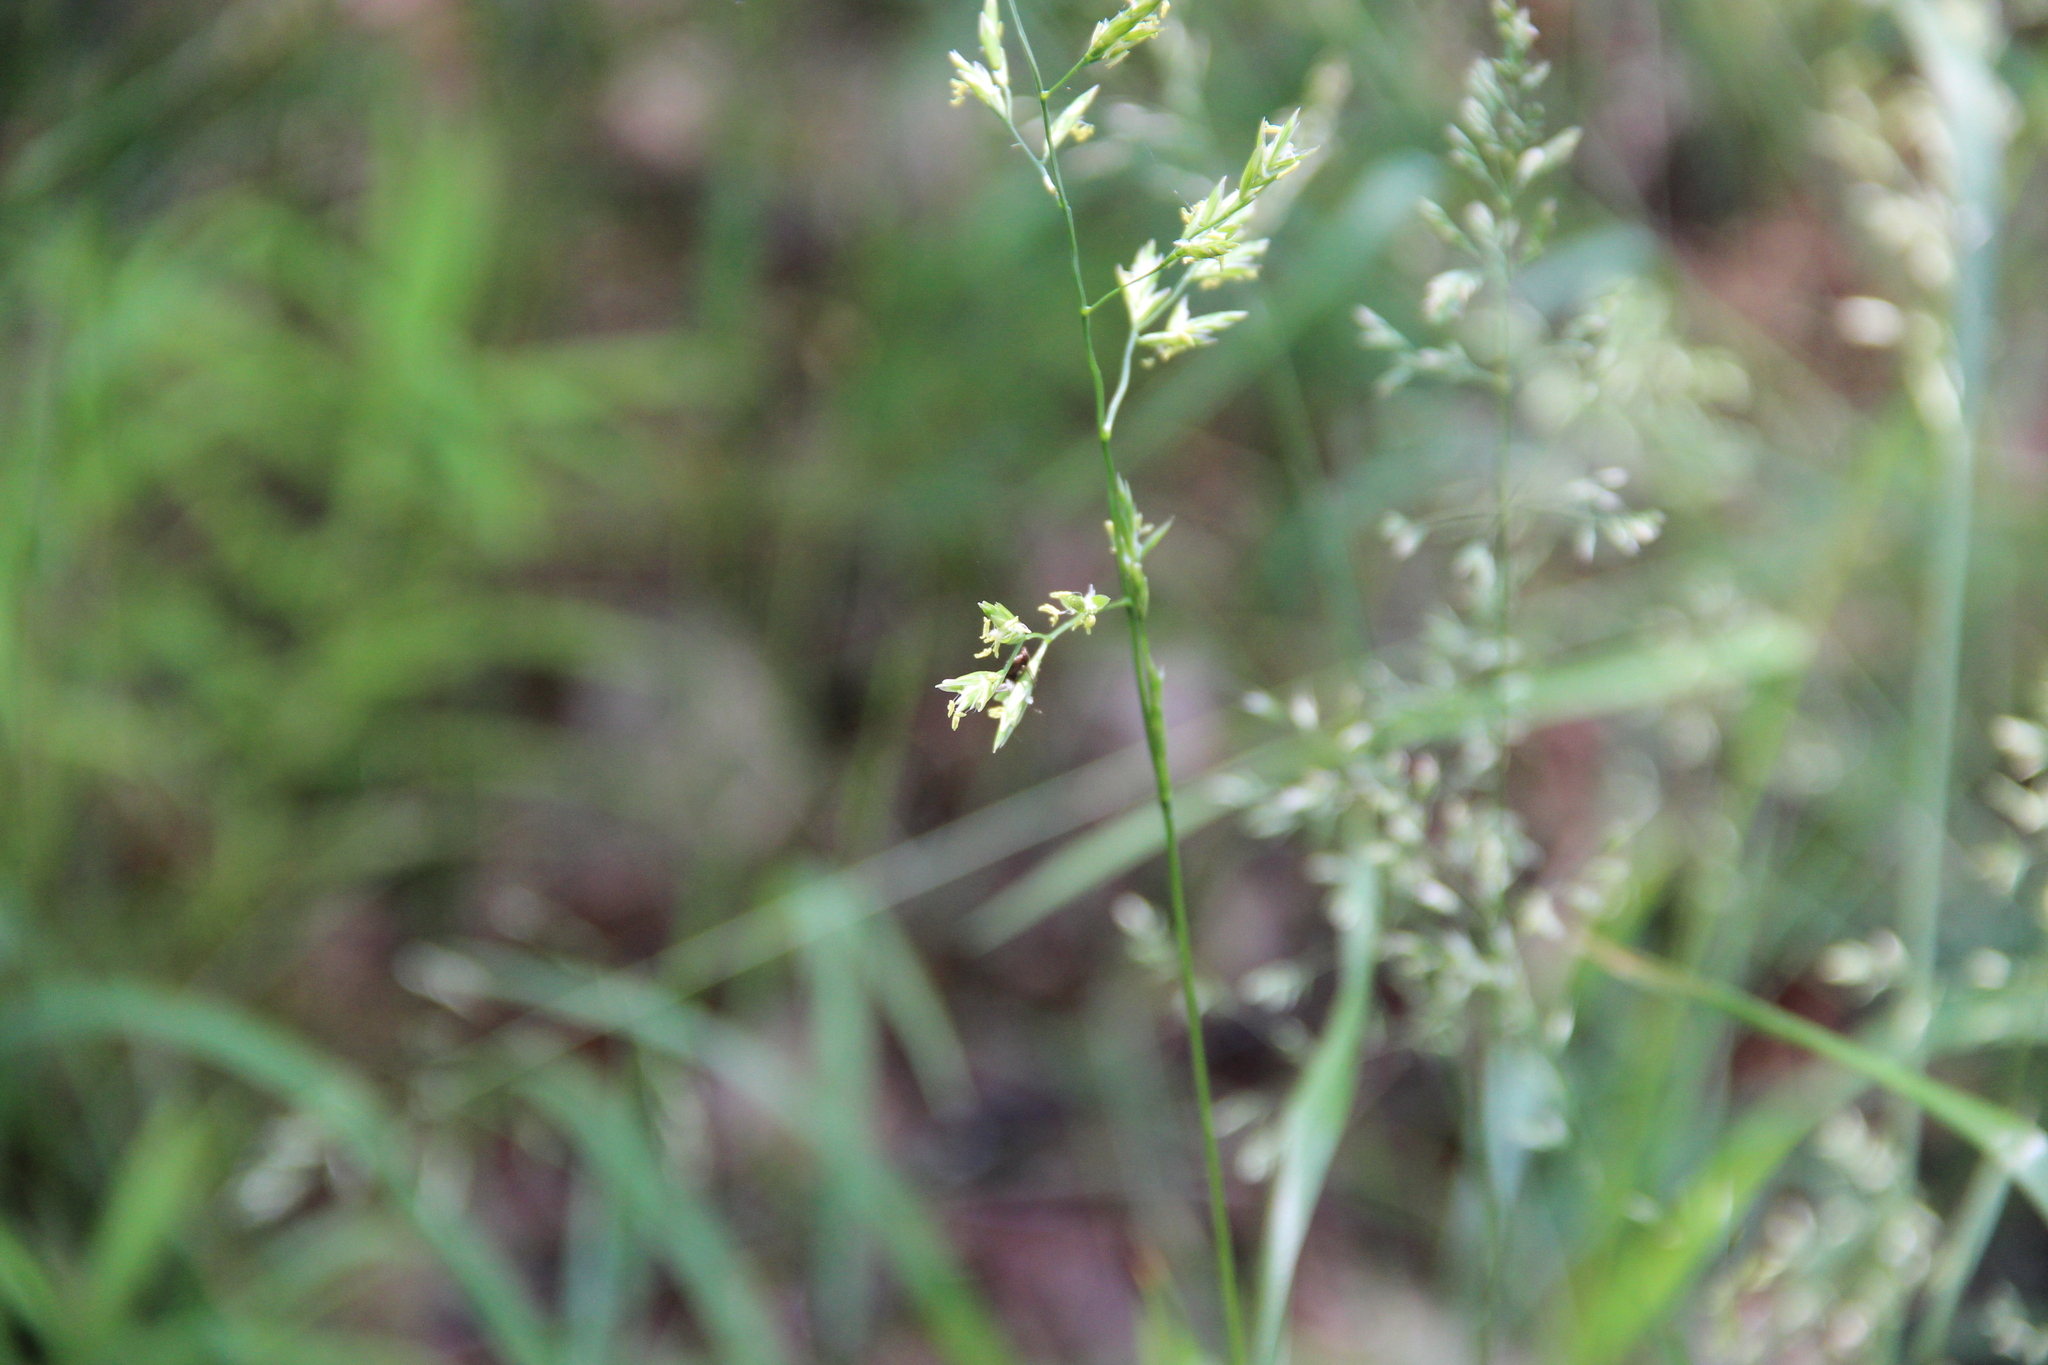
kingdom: Plantae
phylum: Tracheophyta
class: Liliopsida
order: Poales
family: Poaceae
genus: Lolium
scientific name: Lolium pratense
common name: Dover grass
